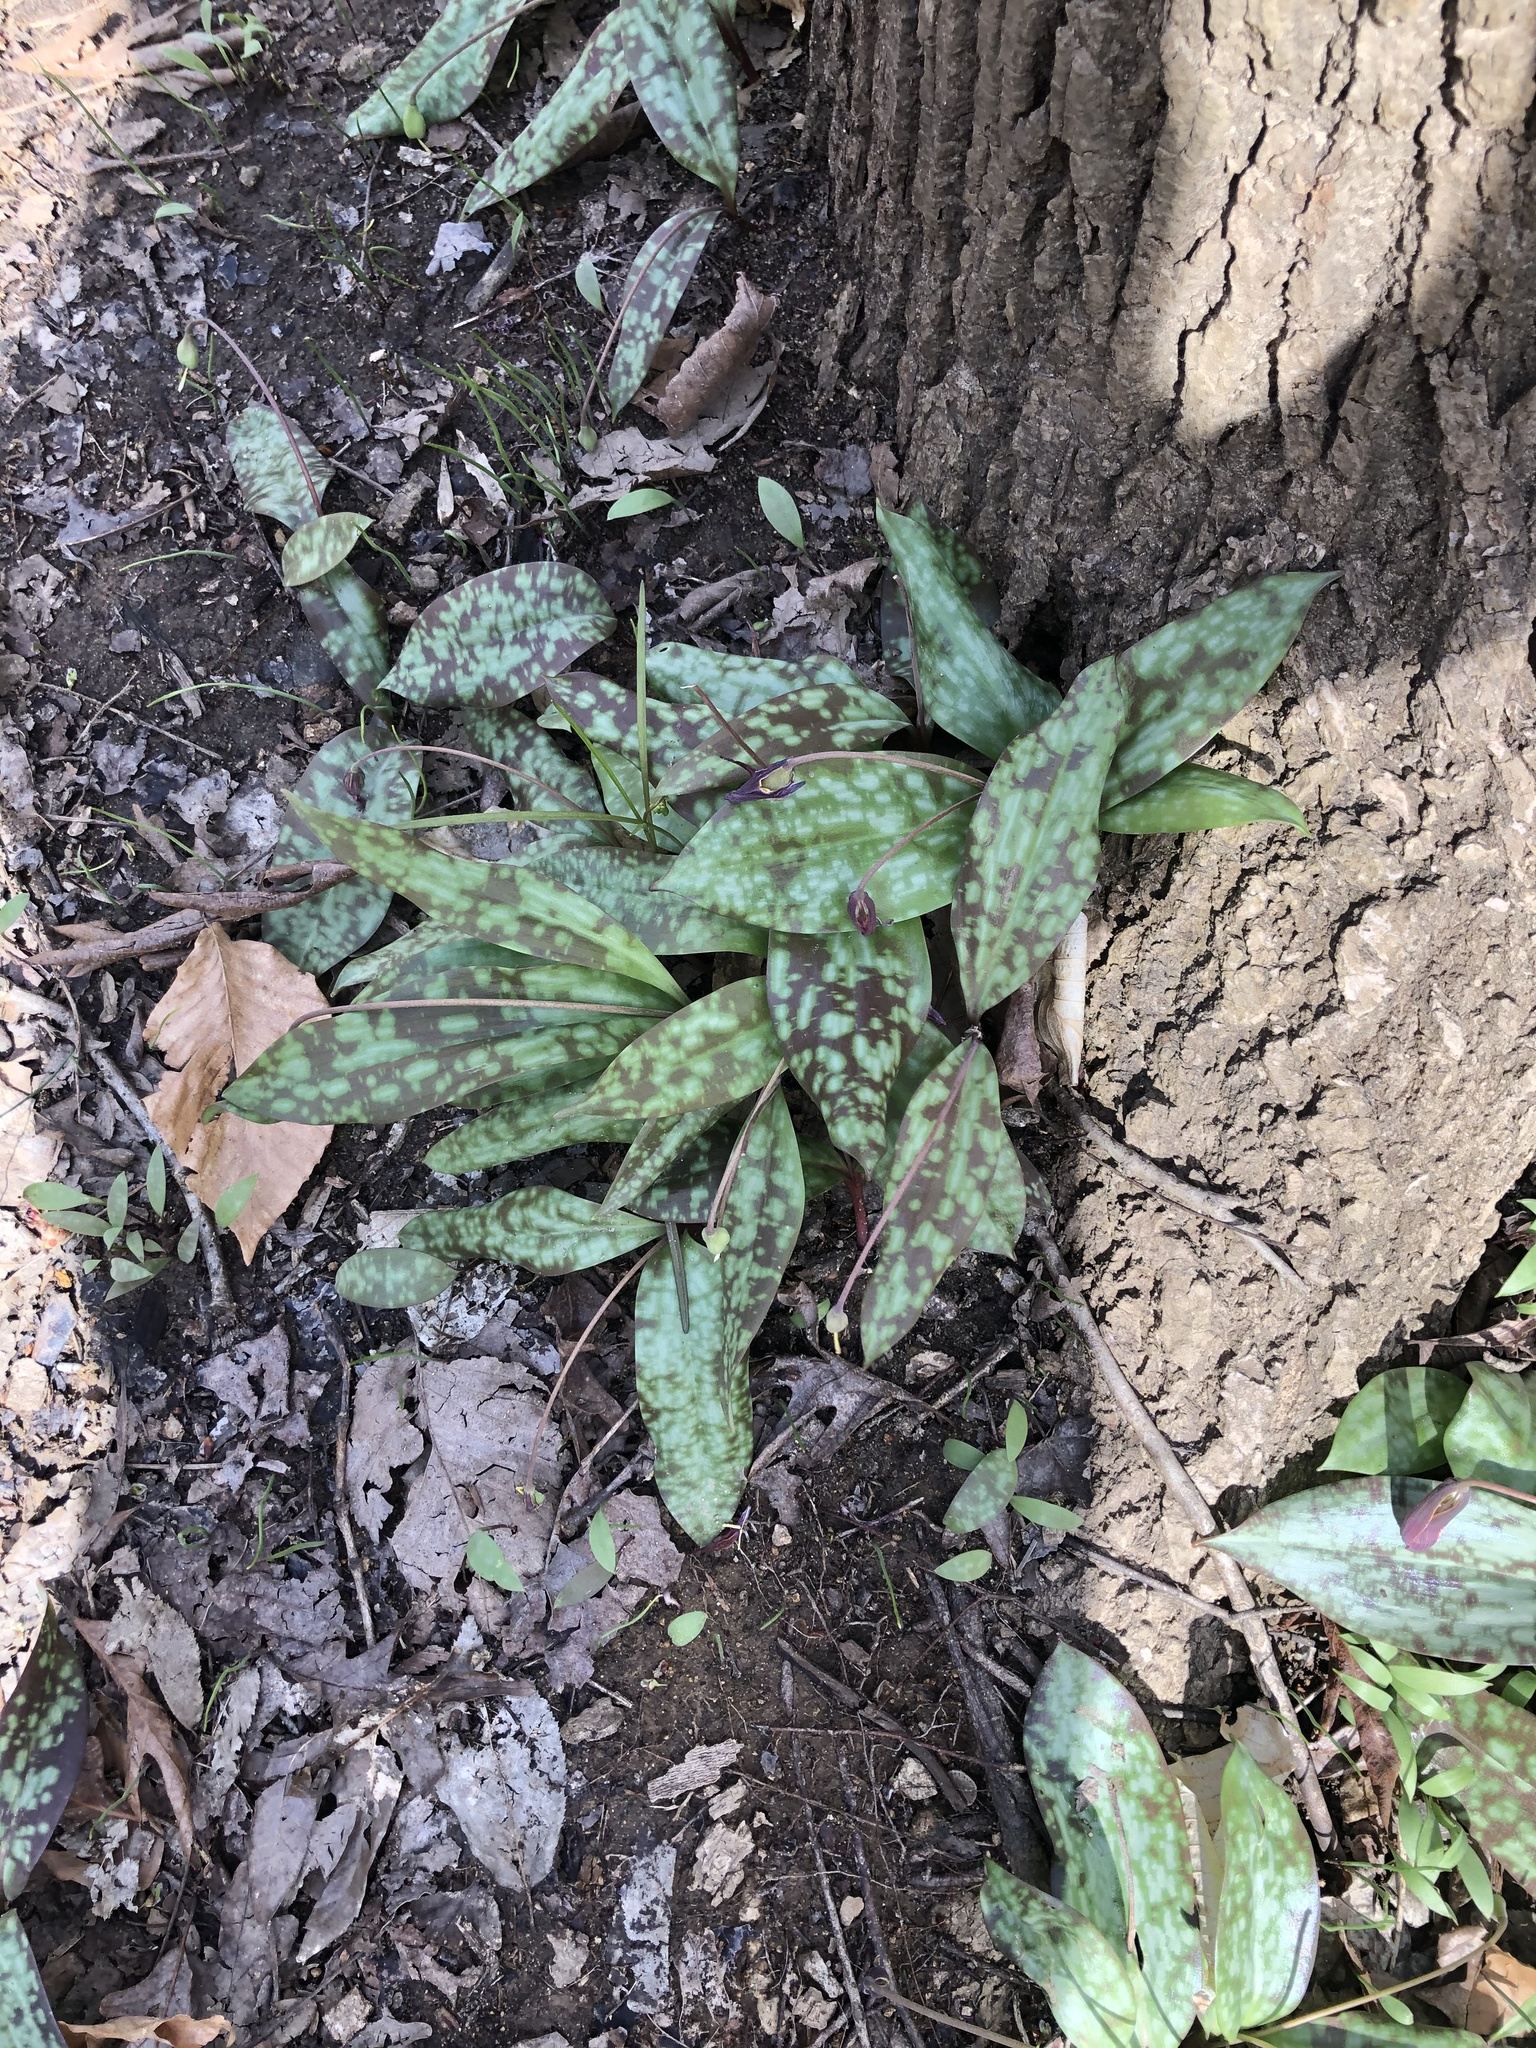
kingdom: Plantae
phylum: Tracheophyta
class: Liliopsida
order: Liliales
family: Liliaceae
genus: Erythronium
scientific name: Erythronium umbilicatum
